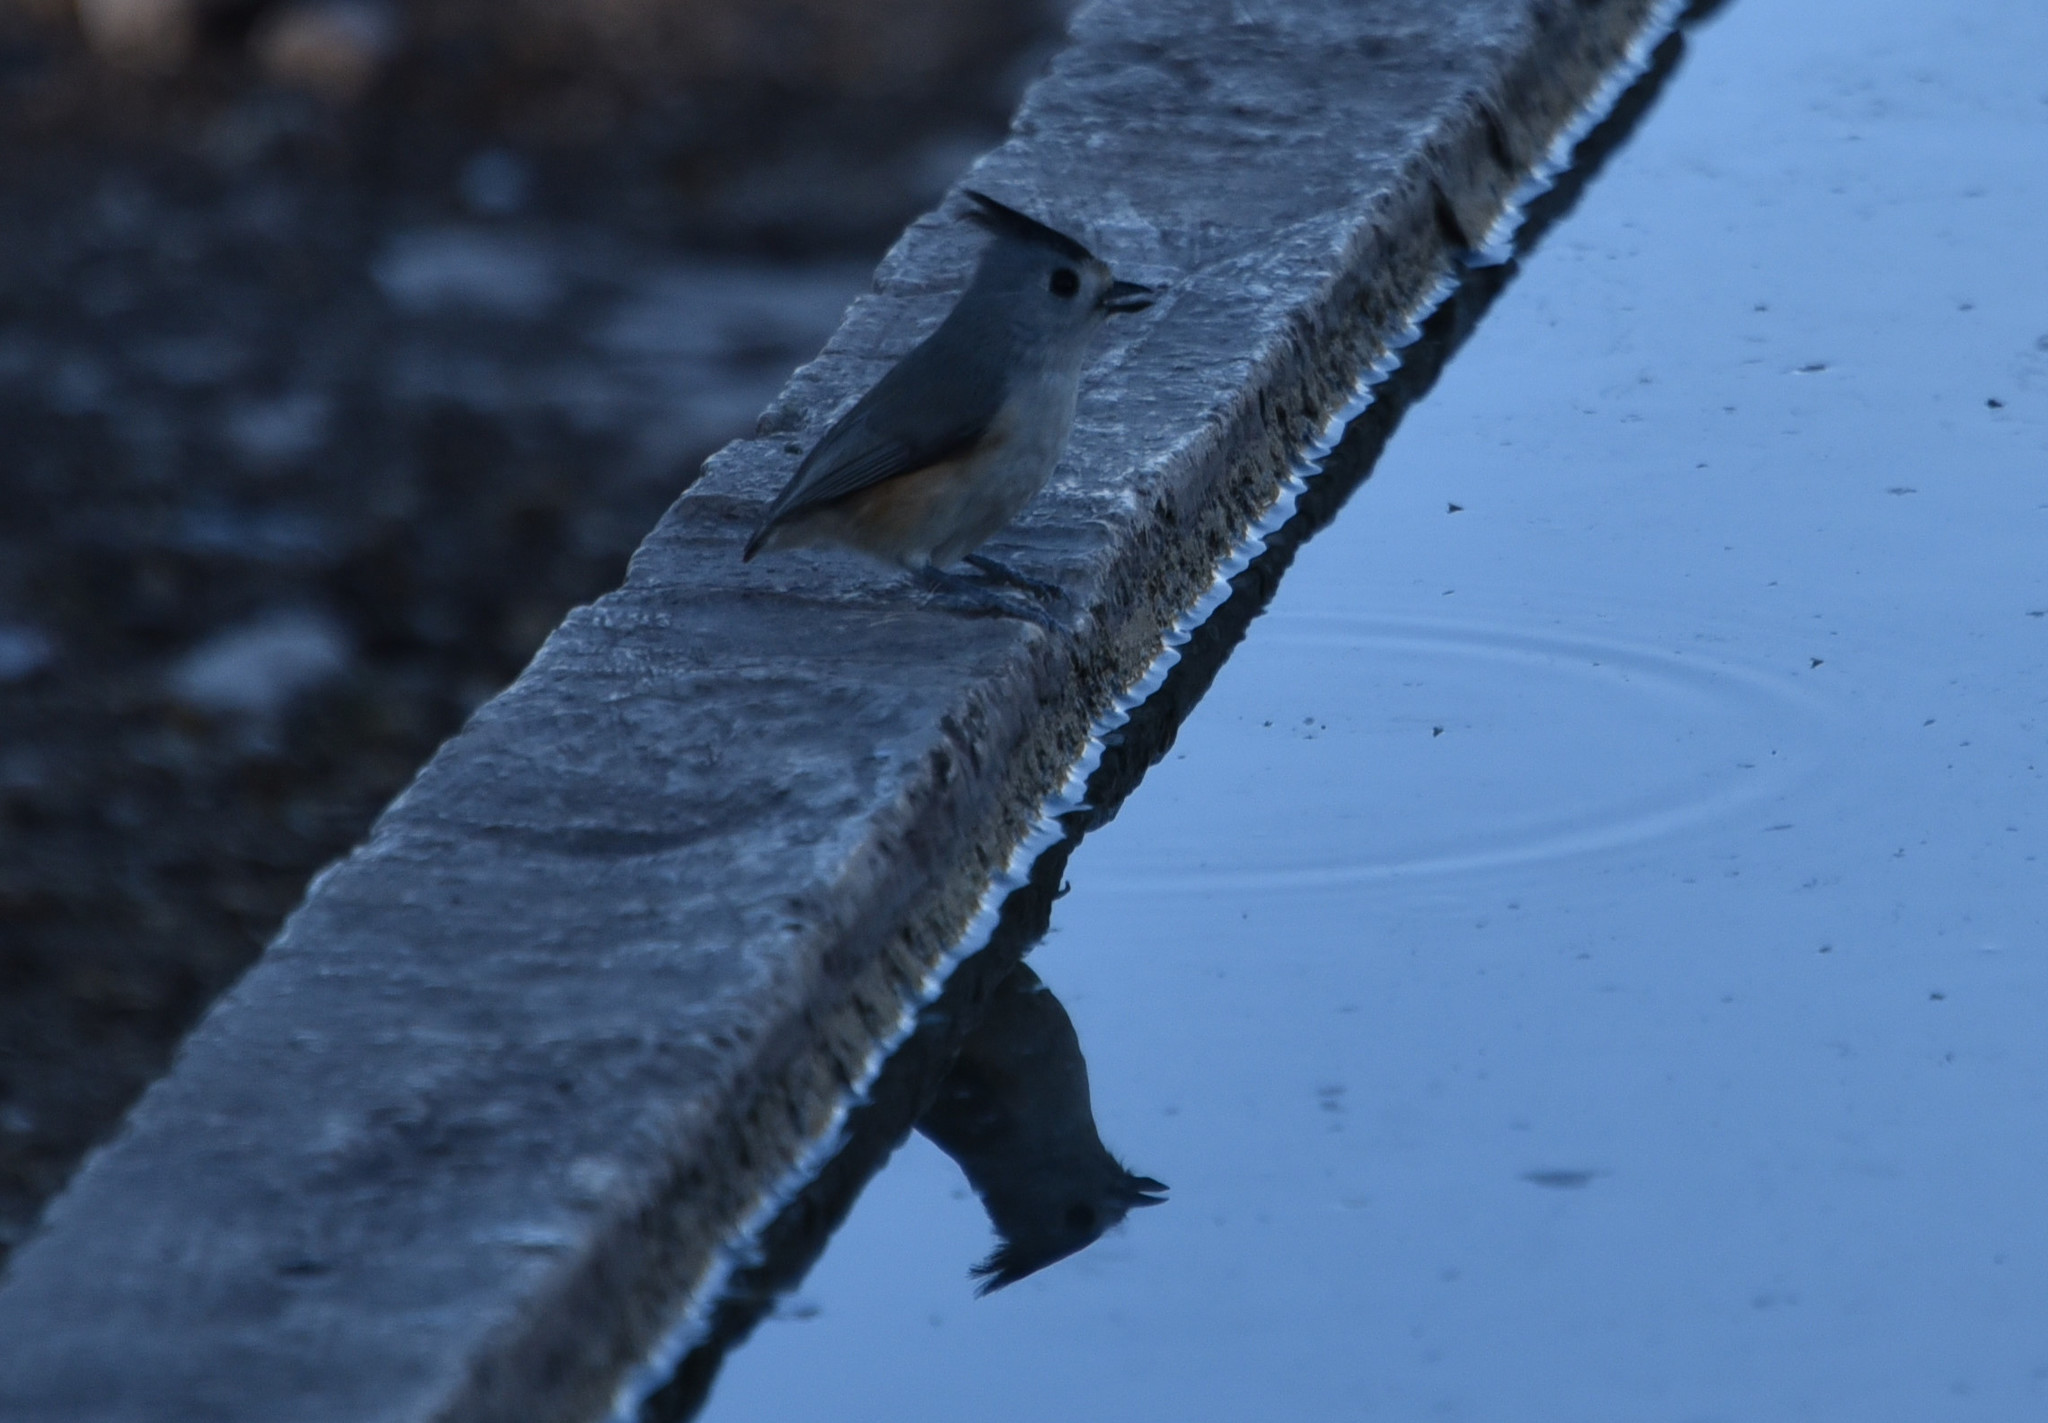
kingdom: Animalia
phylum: Chordata
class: Aves
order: Passeriformes
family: Paridae
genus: Baeolophus
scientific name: Baeolophus atricristatus
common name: Black-crested titmouse
